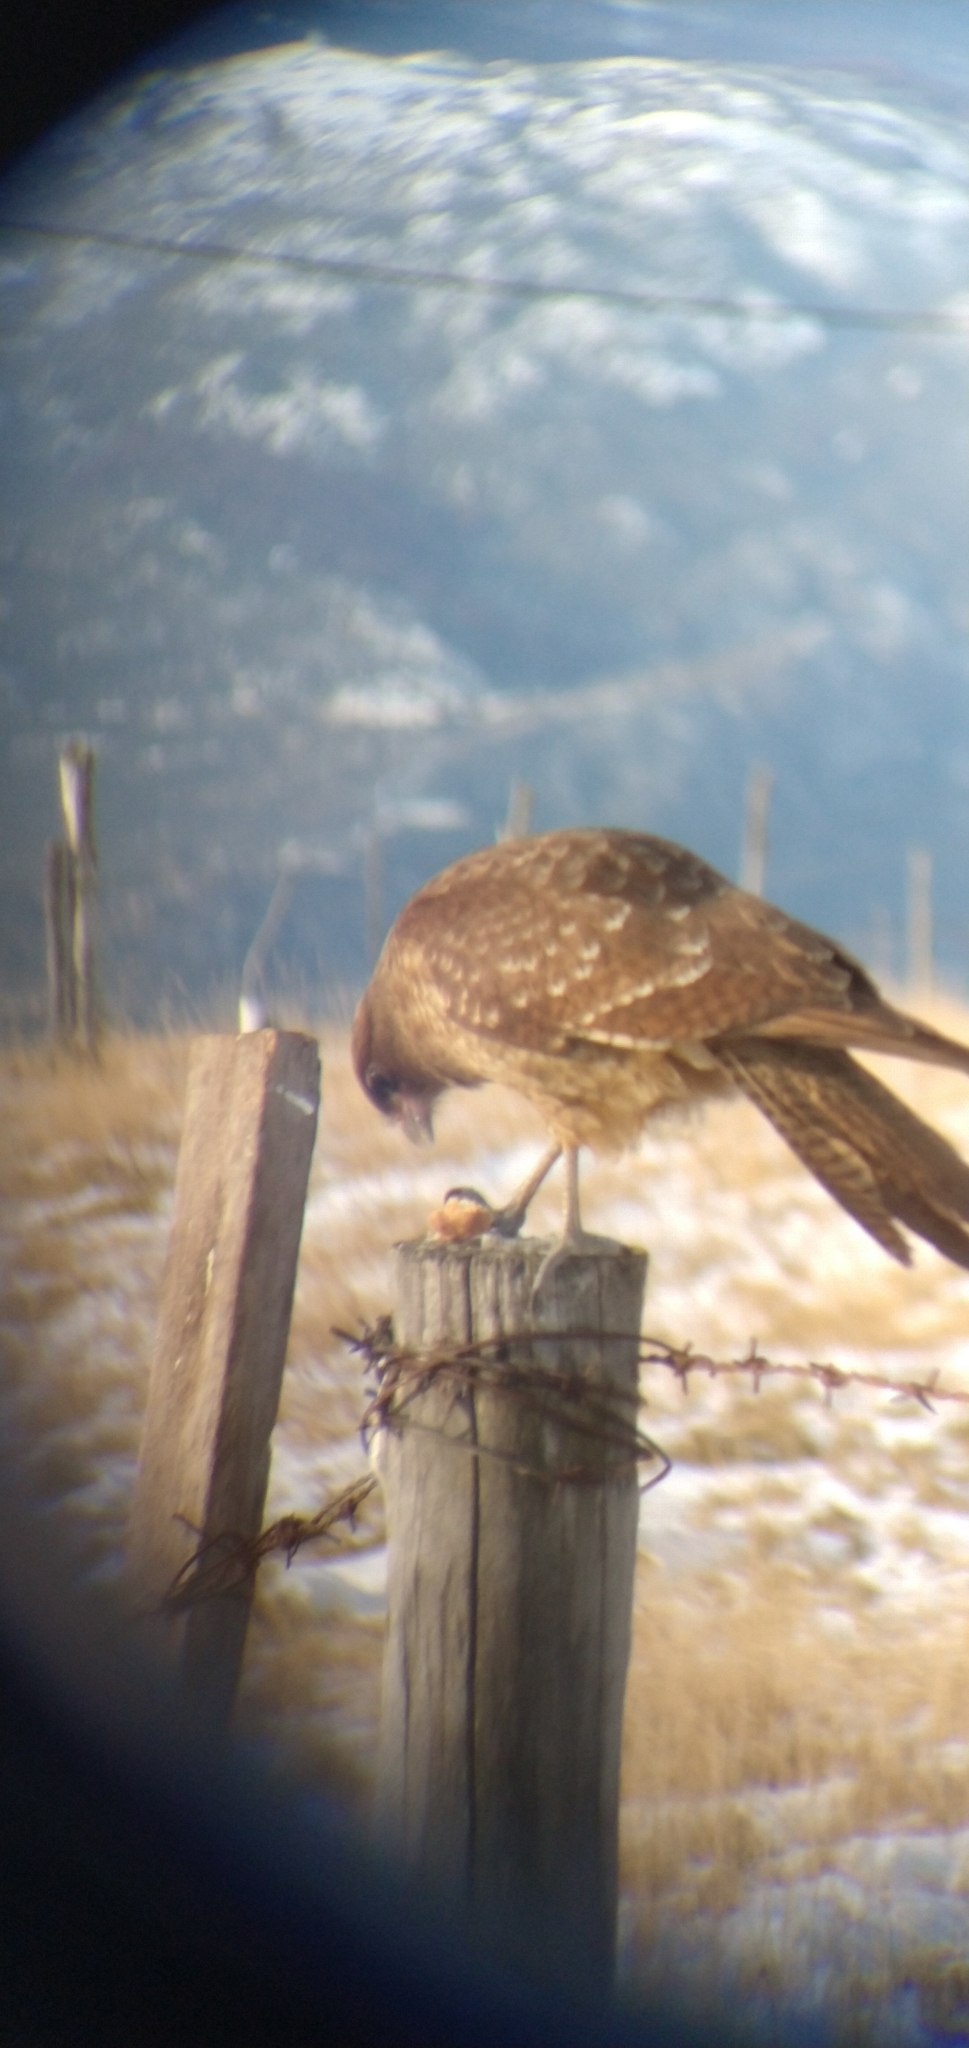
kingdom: Animalia
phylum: Chordata
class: Aves
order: Falconiformes
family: Falconidae
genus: Daptrius
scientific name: Daptrius
